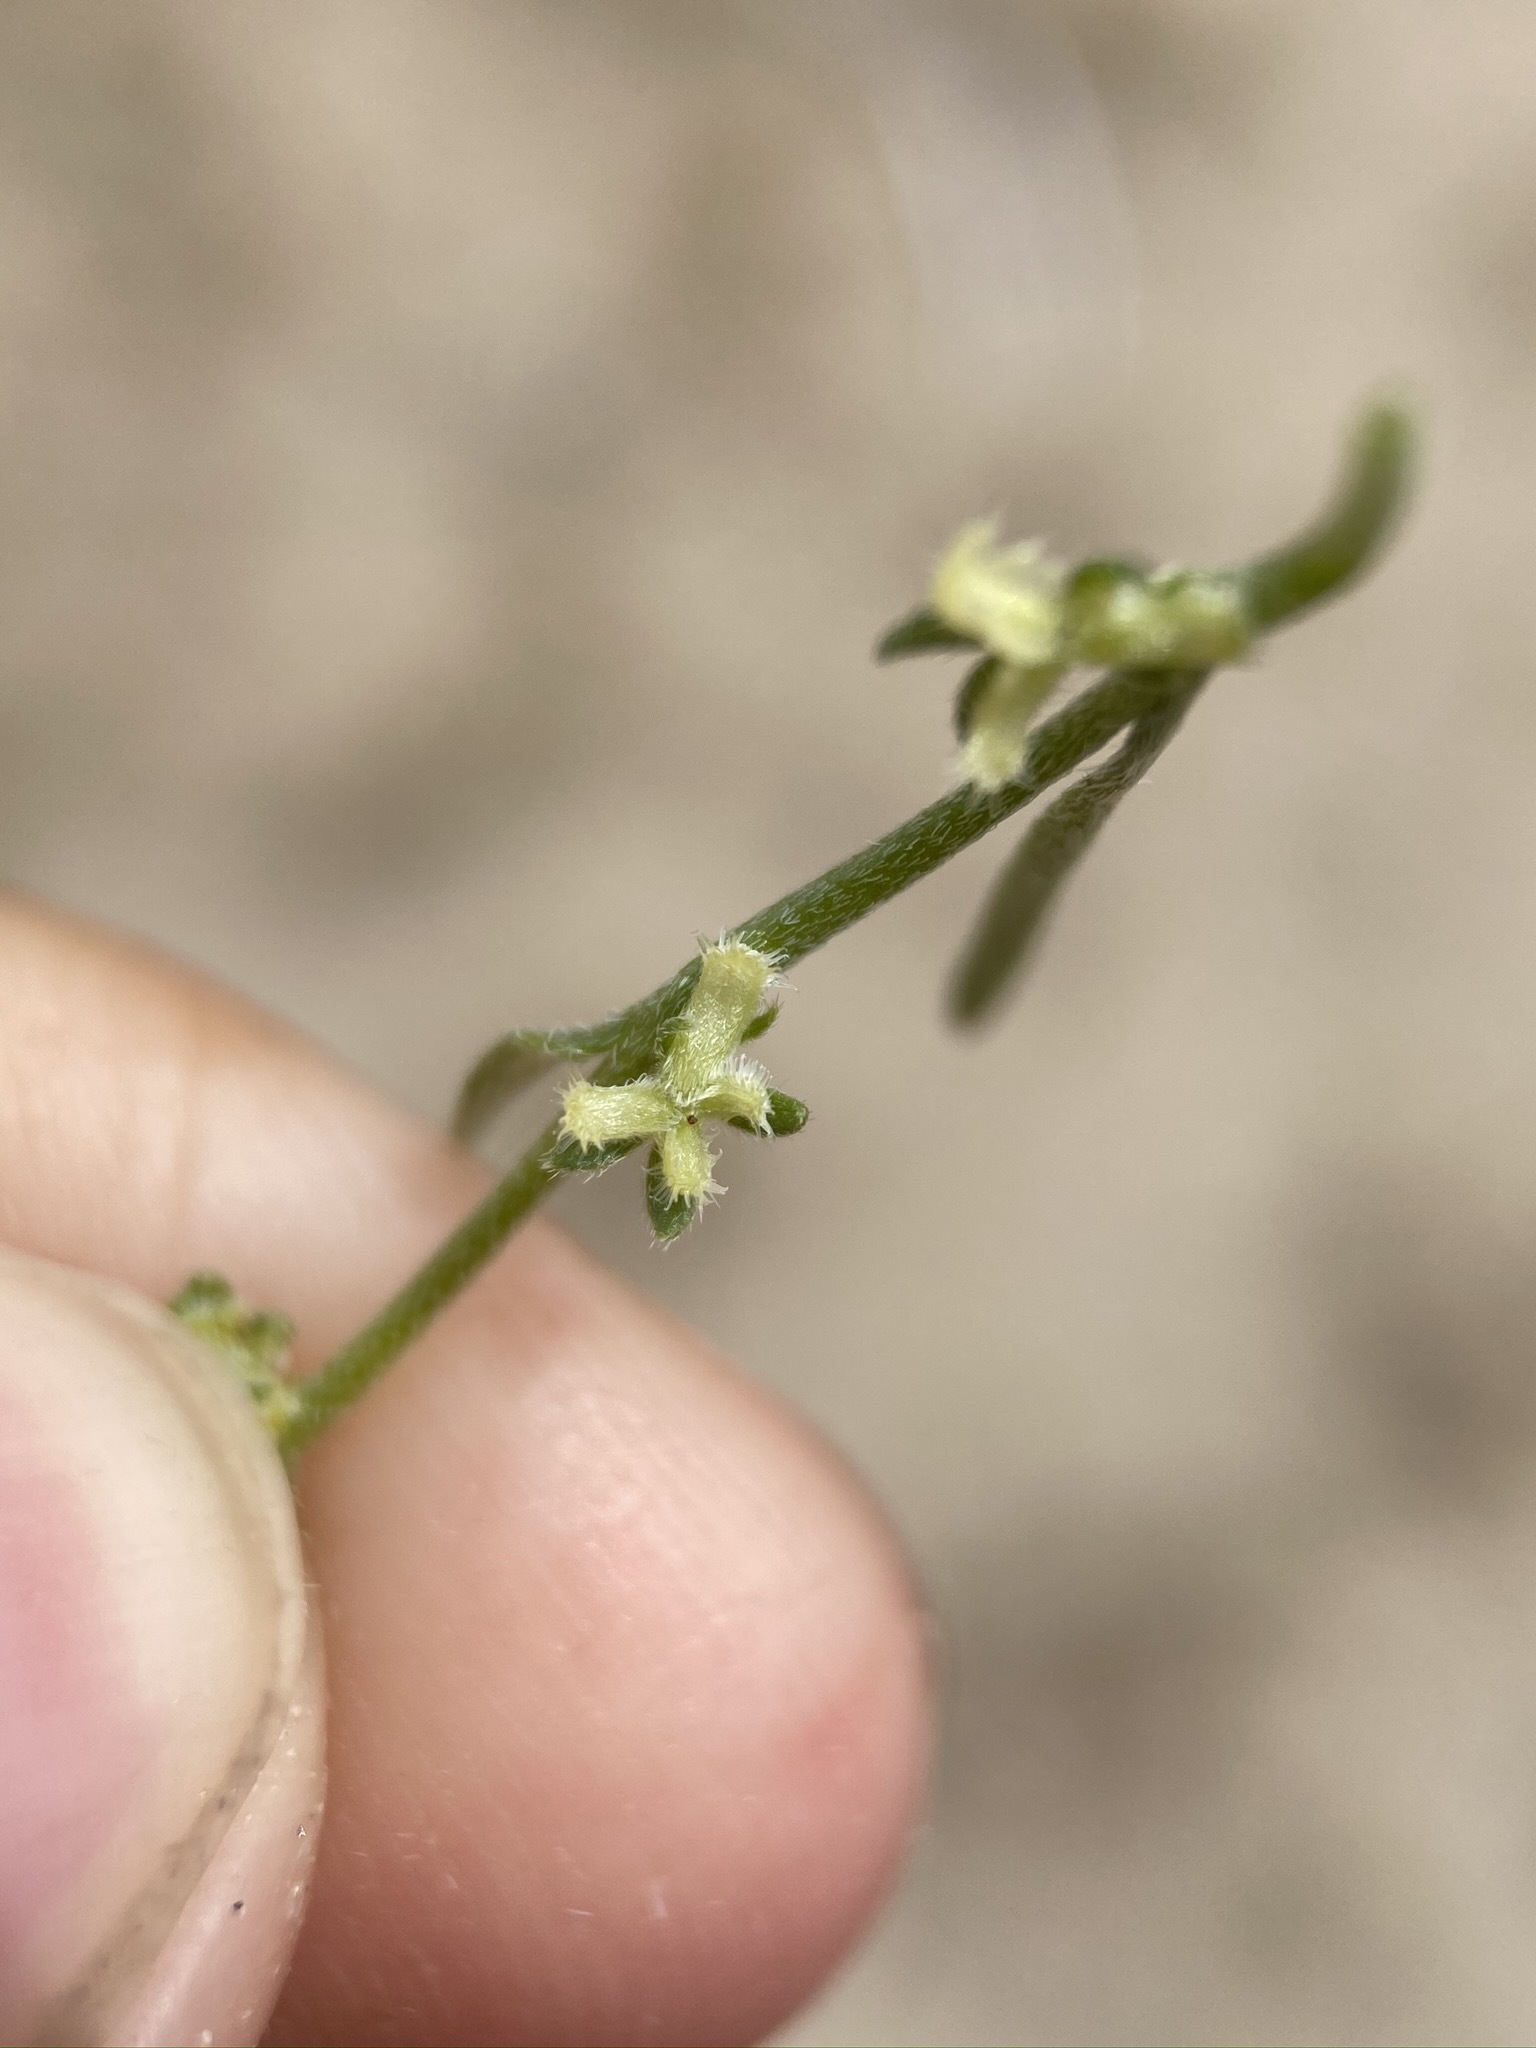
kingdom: Plantae
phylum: Tracheophyta
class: Magnoliopsida
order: Boraginales
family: Boraginaceae
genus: Pectocarya
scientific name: Pectocarya heterocarpa
